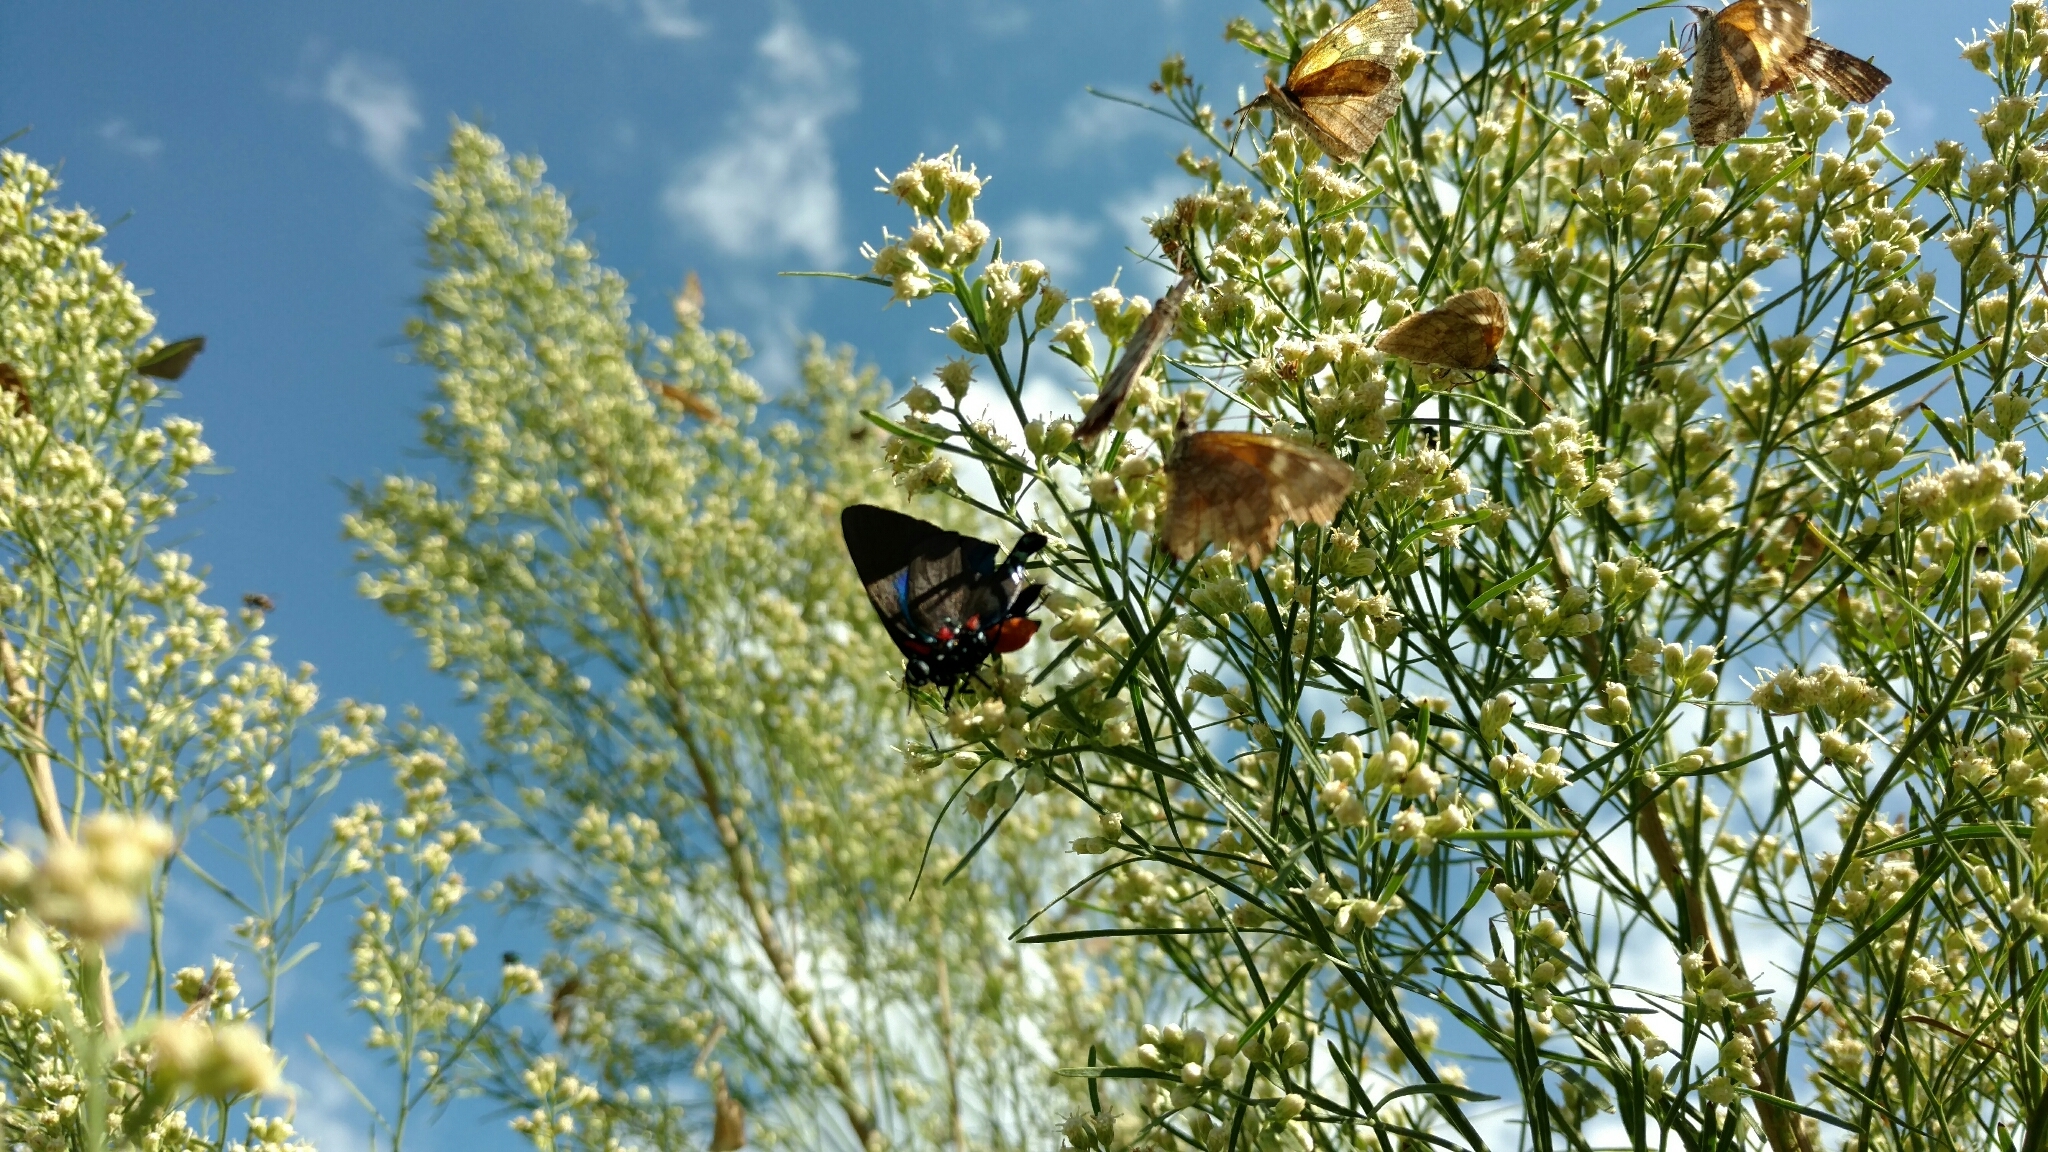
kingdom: Animalia
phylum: Arthropoda
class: Insecta
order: Lepidoptera
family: Lycaenidae
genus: Atlides
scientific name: Atlides halesus
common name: Great purple hairstreak
